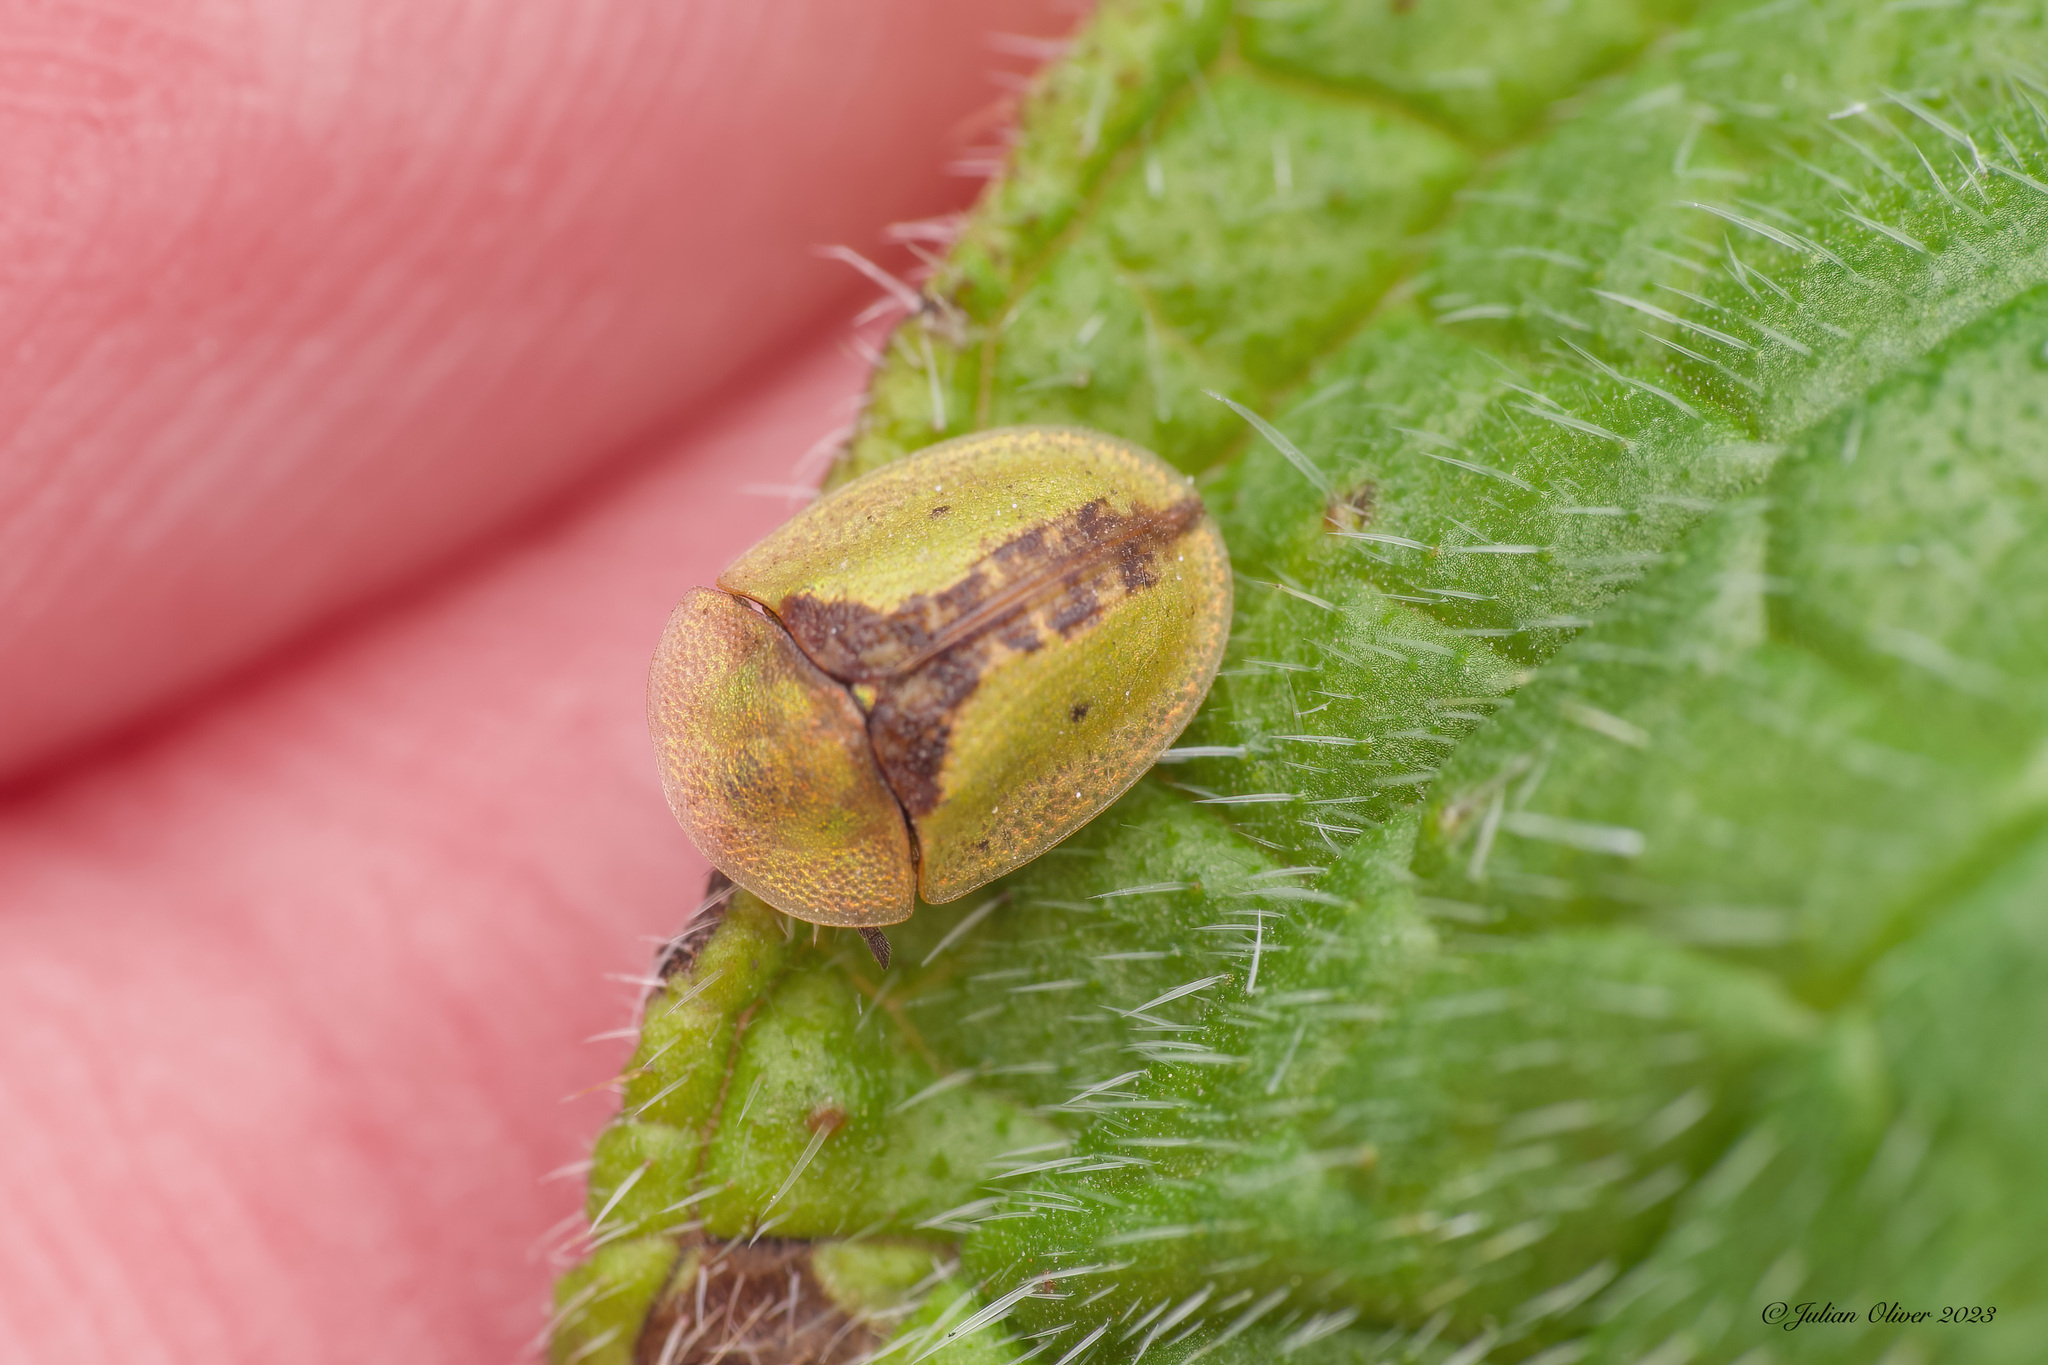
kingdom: Animalia
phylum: Arthropoda
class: Insecta
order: Coleoptera
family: Chrysomelidae
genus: Cassida
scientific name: Cassida vibex
